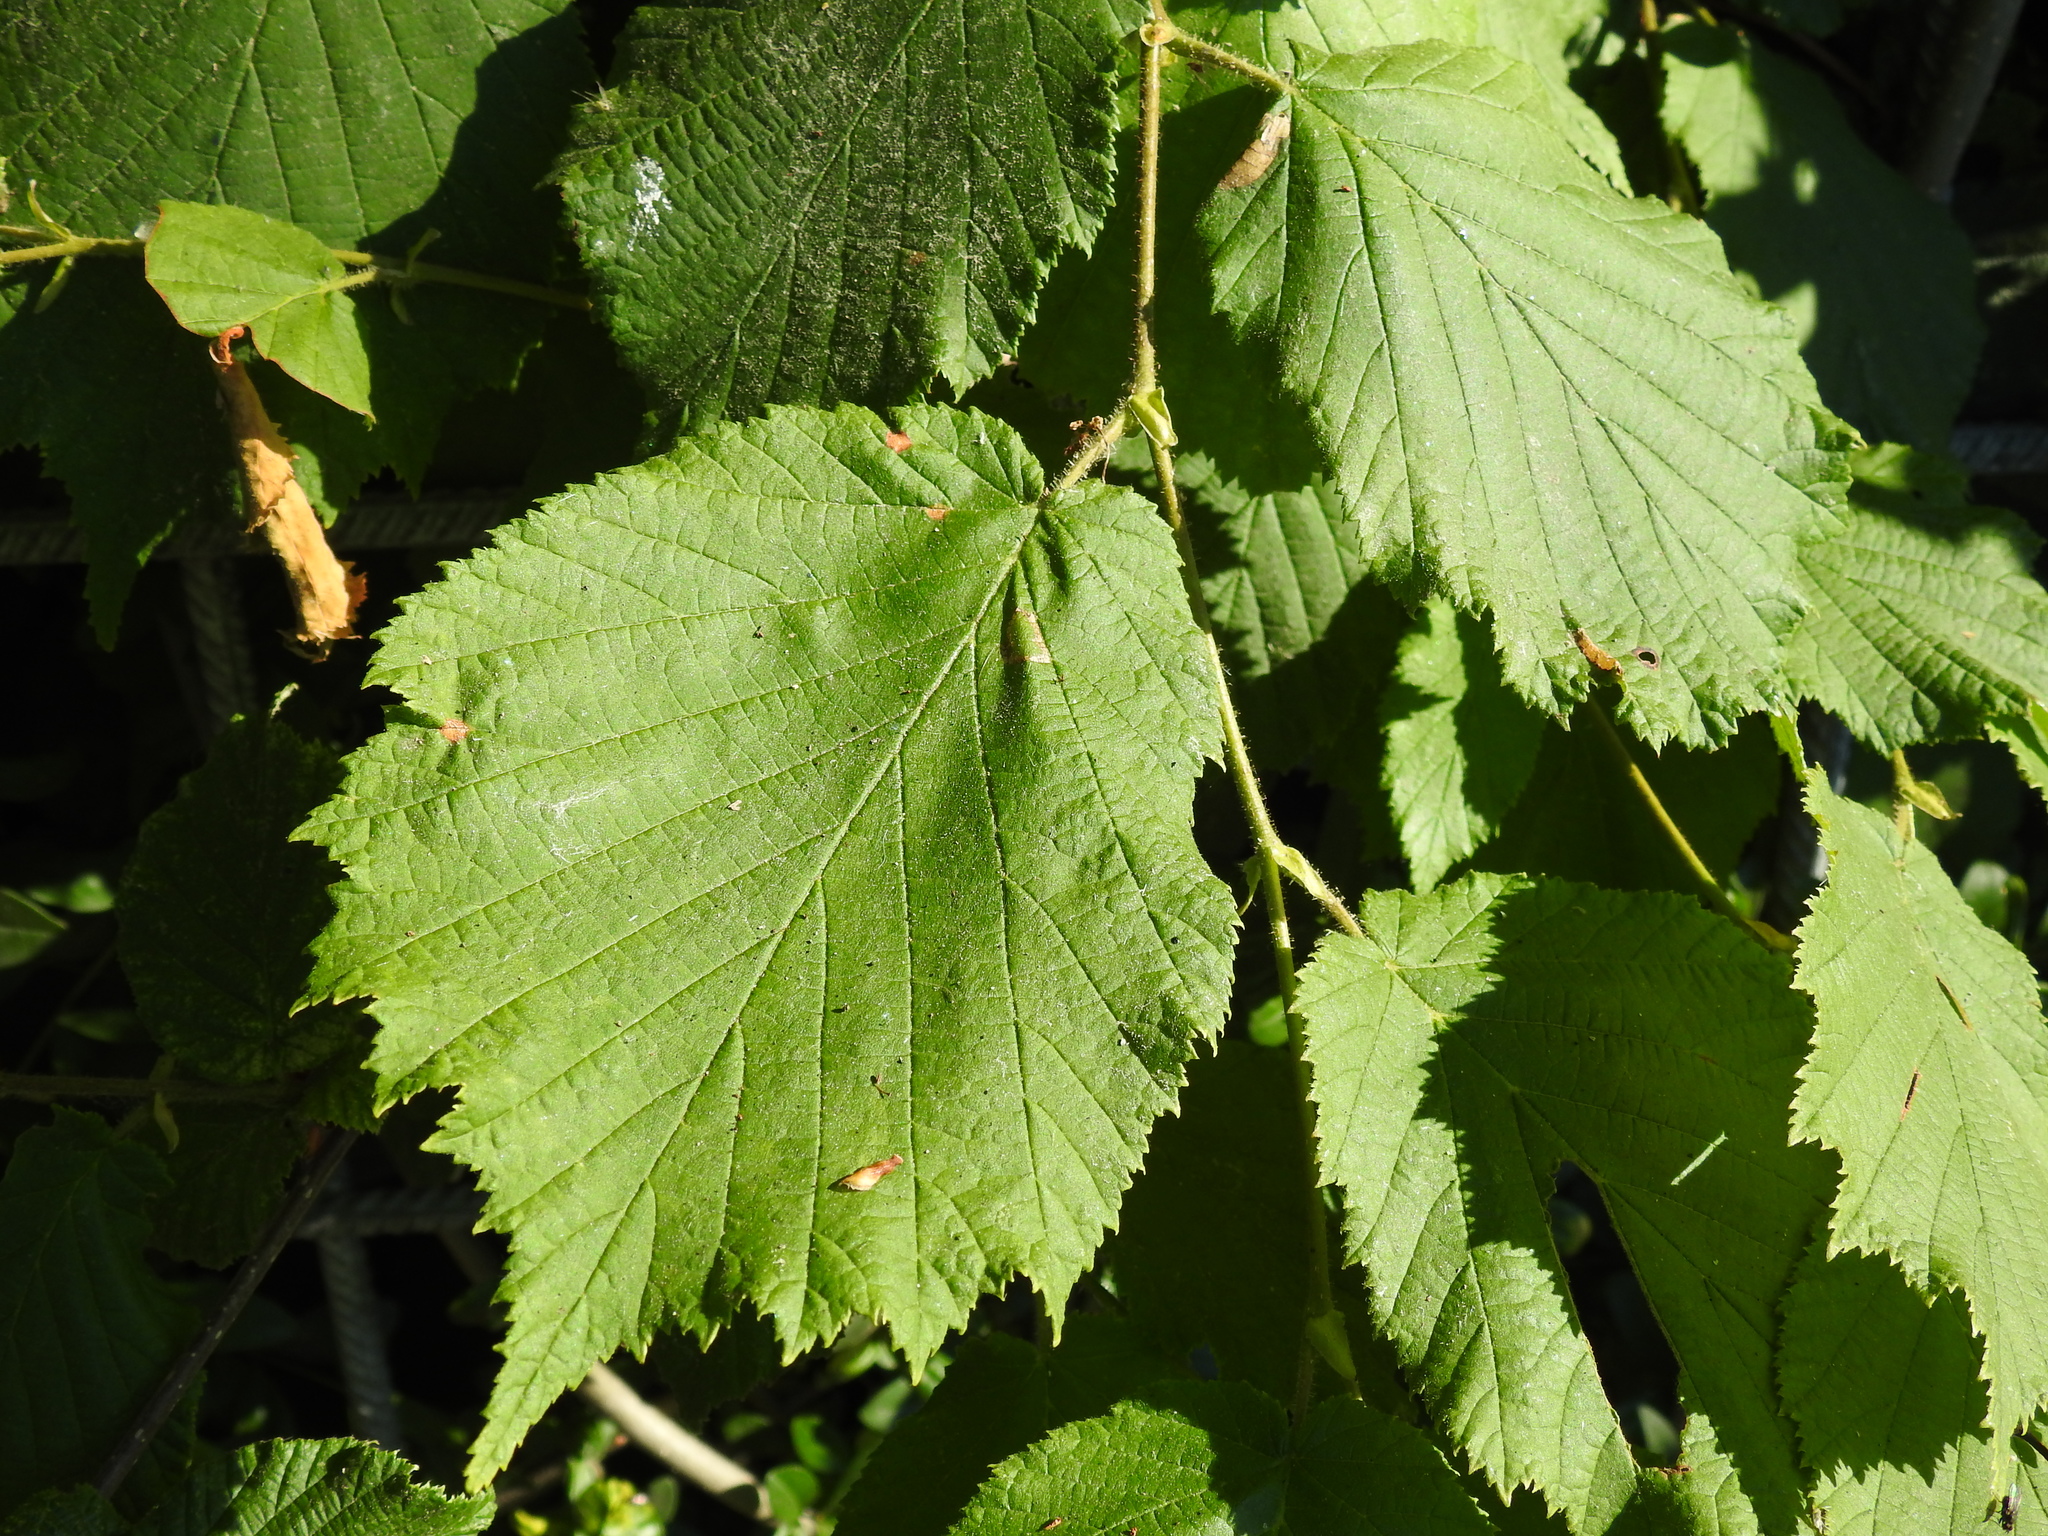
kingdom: Plantae
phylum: Tracheophyta
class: Magnoliopsida
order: Fagales
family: Betulaceae
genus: Corylus
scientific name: Corylus avellana
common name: European hazel
